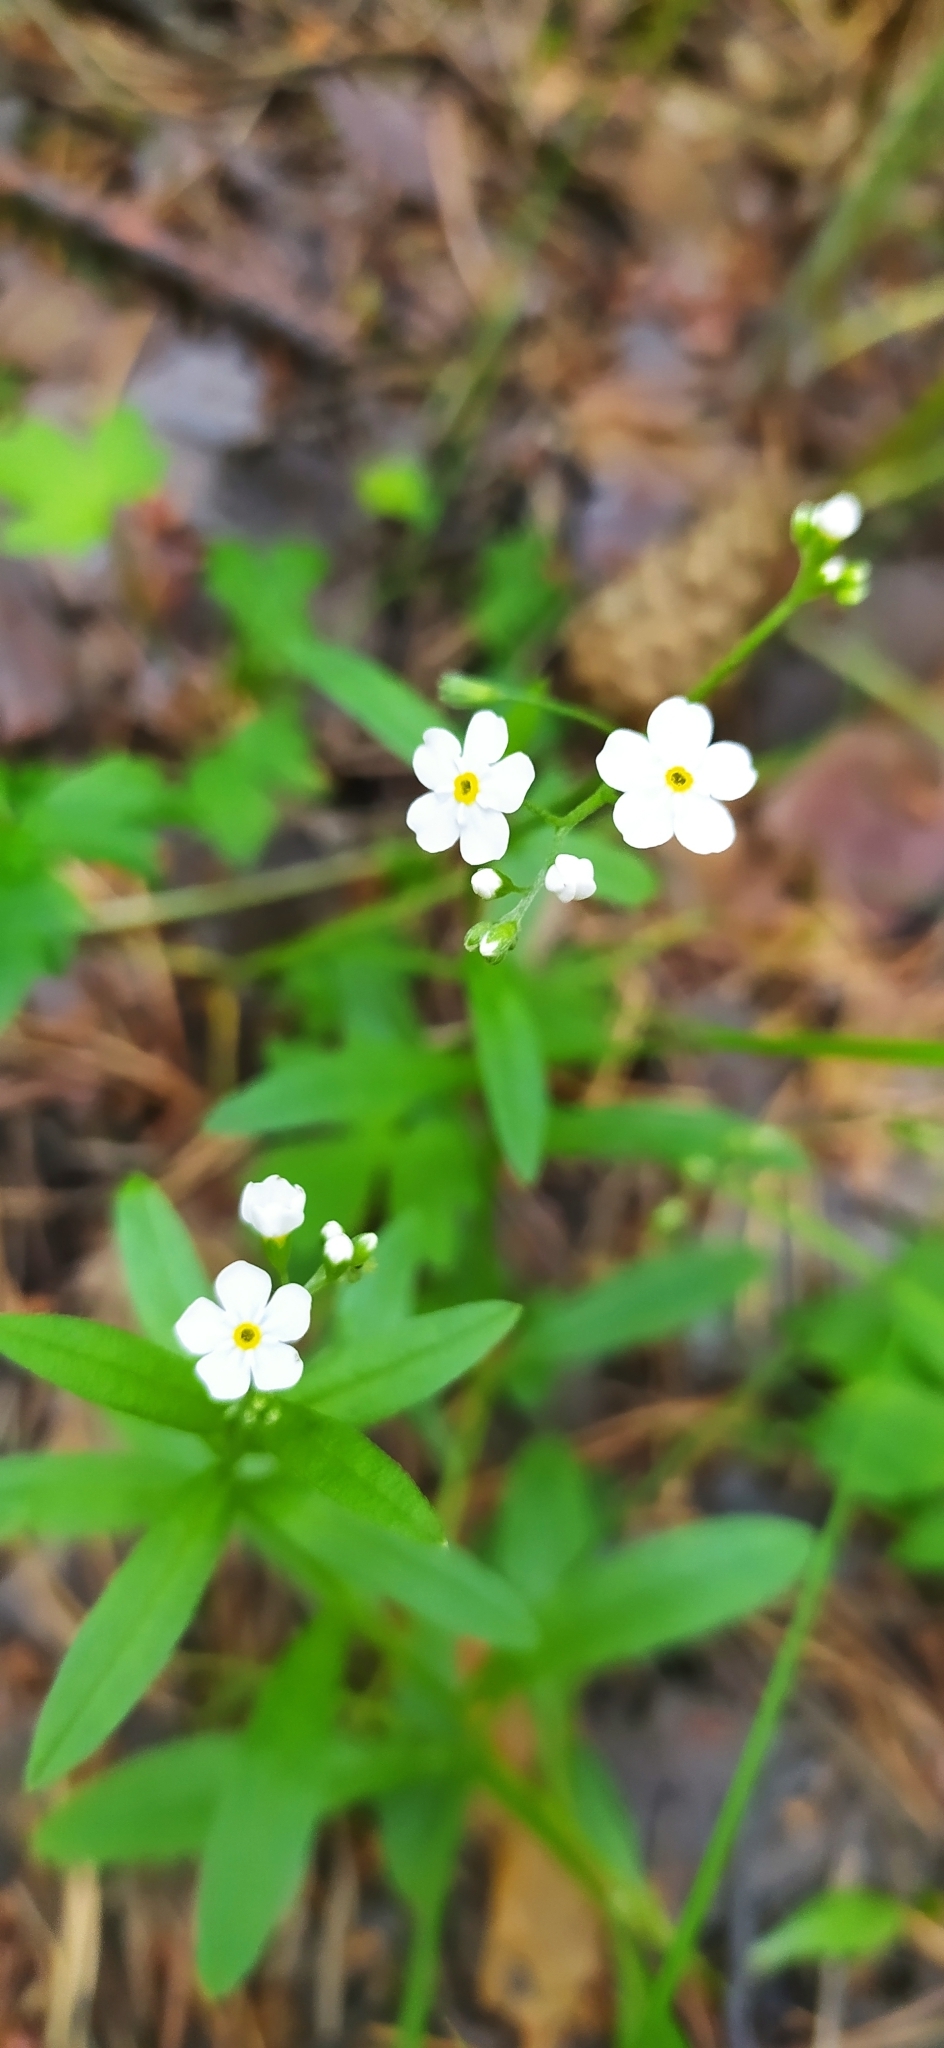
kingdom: Plantae
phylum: Tracheophyta
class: Magnoliopsida
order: Boraginales
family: Boraginaceae
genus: Myosotis
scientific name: Myosotis scorpioides
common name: Water forget-me-not
